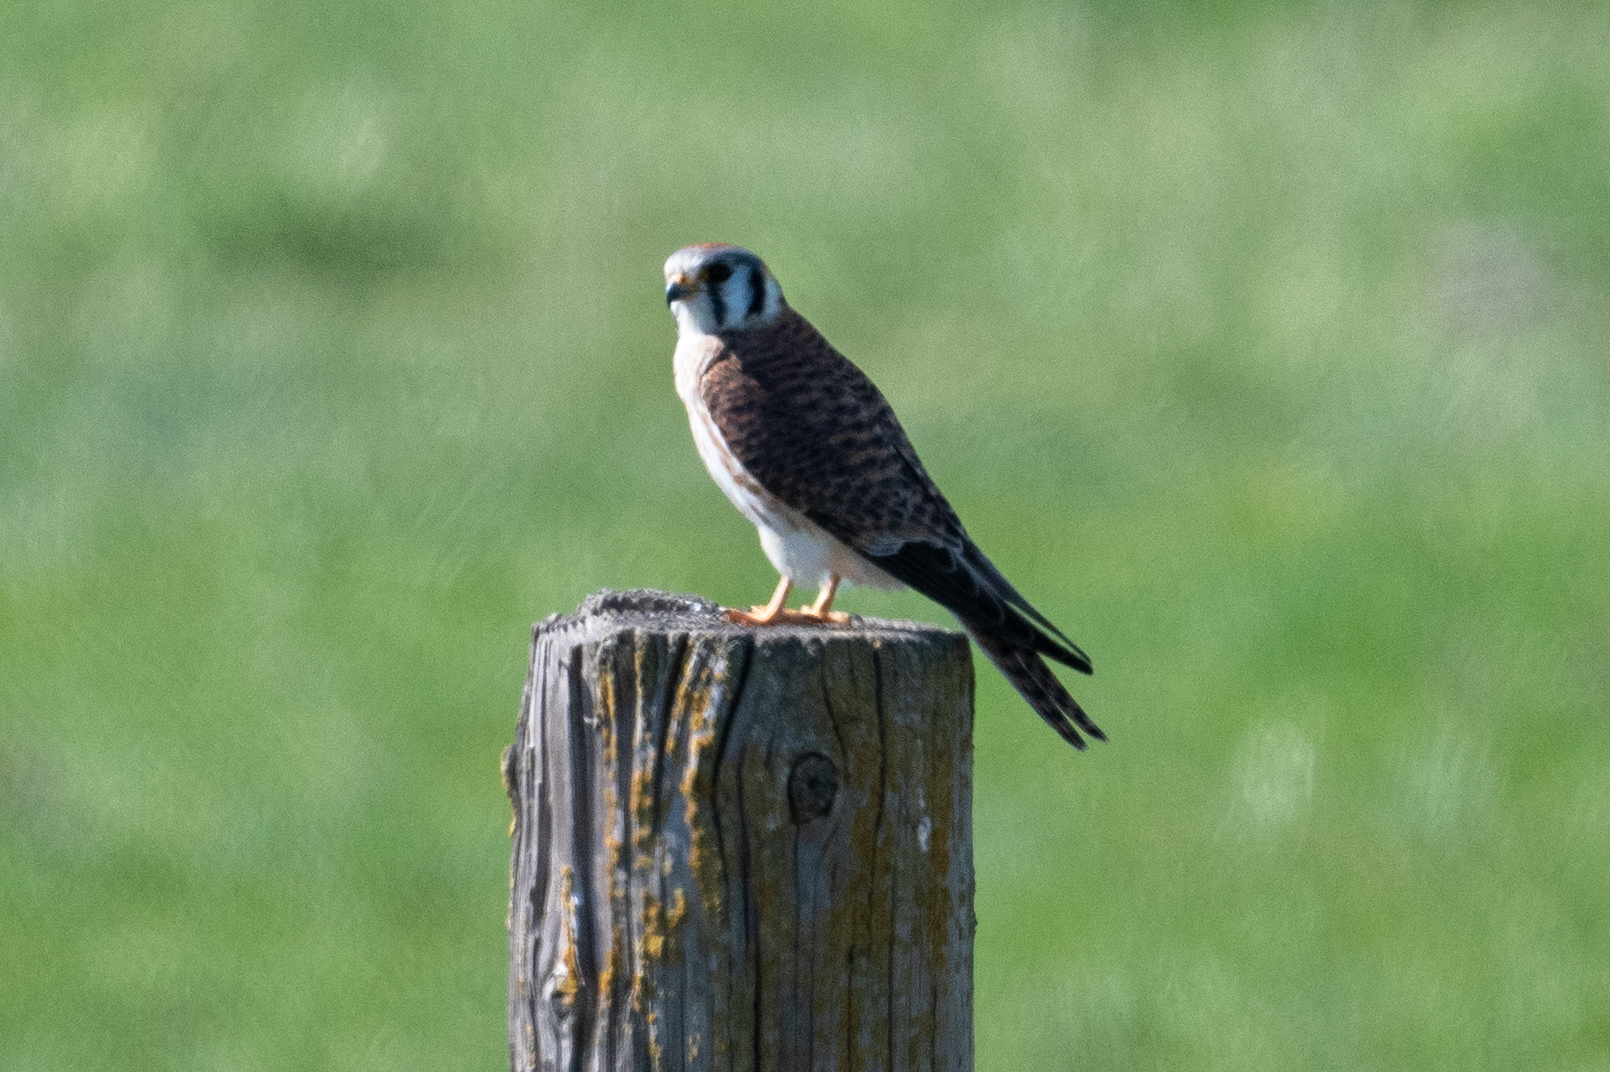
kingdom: Animalia
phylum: Chordata
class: Aves
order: Falconiformes
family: Falconidae
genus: Falco
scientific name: Falco sparverius
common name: American kestrel
